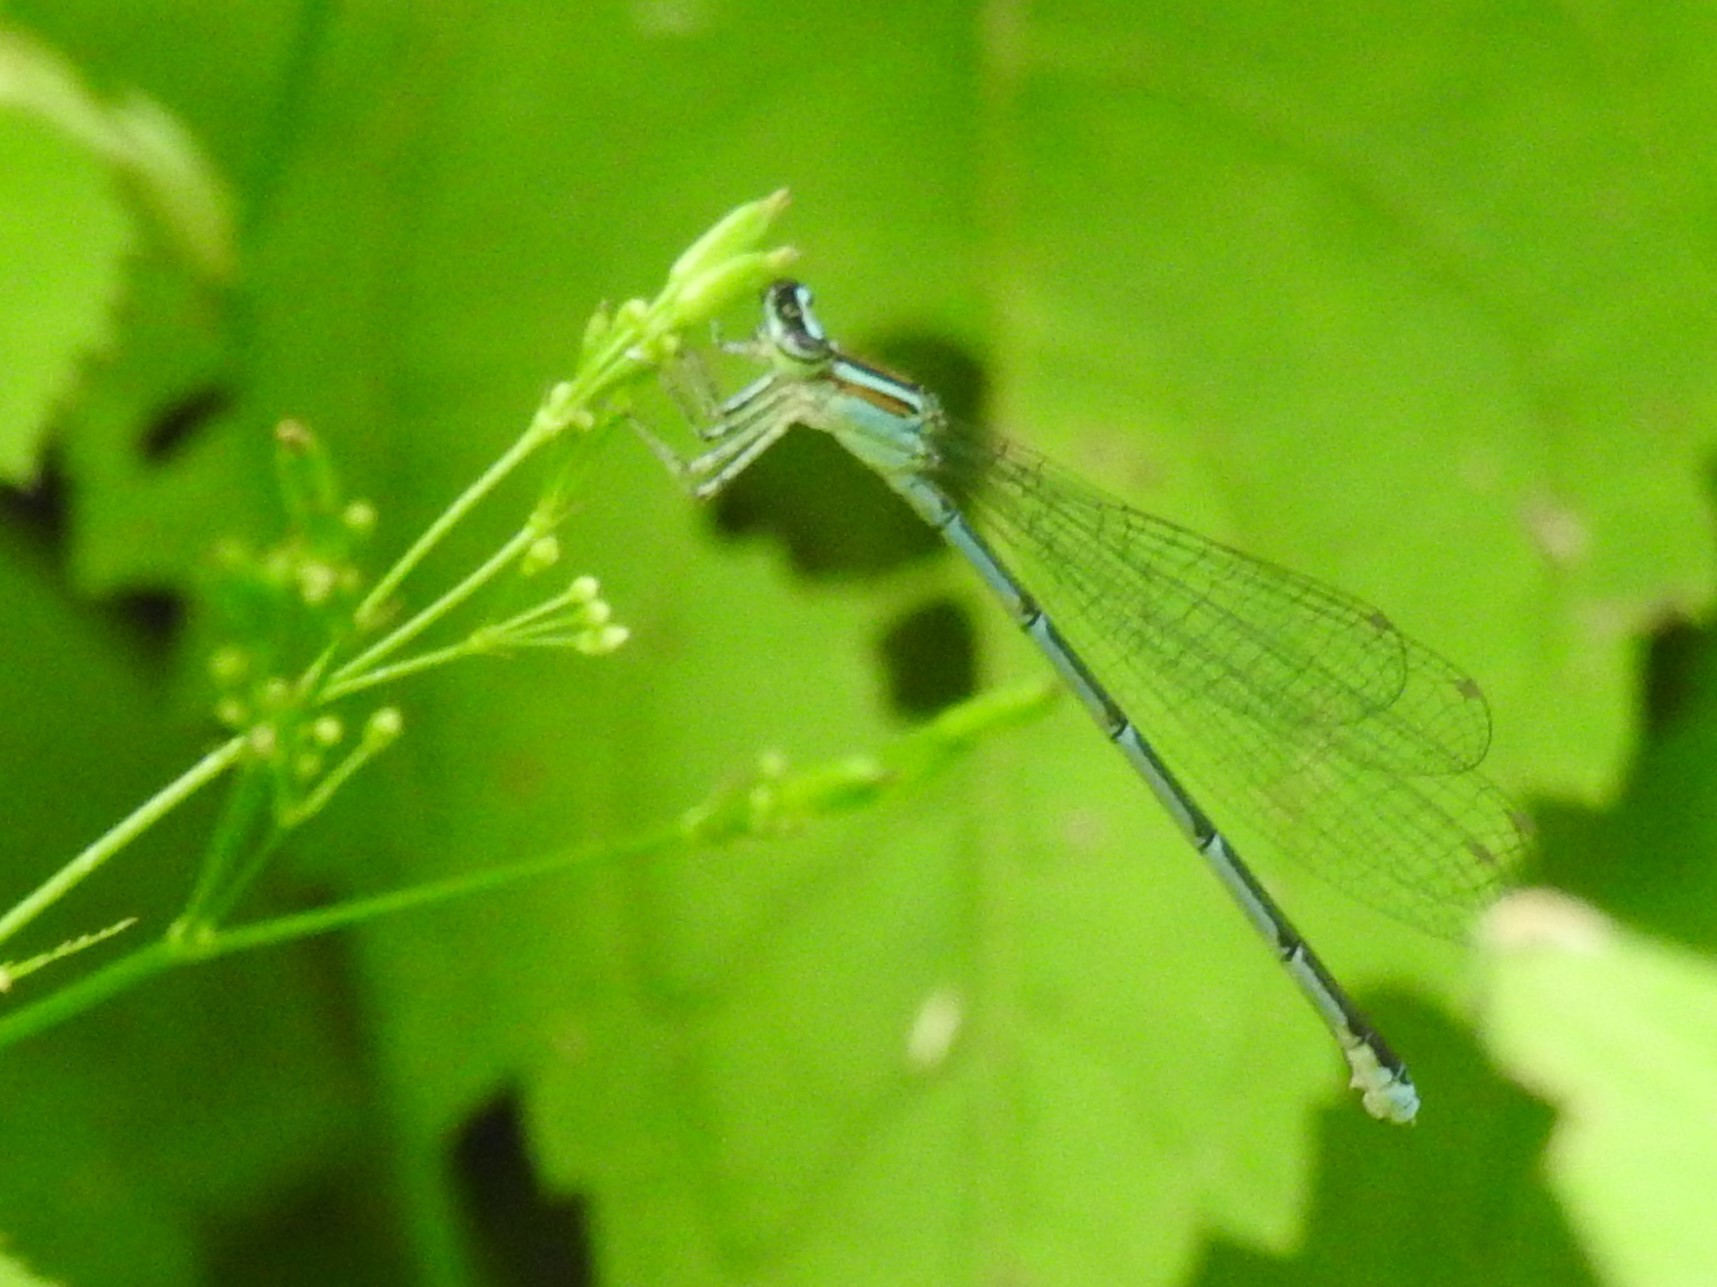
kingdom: Animalia
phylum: Arthropoda
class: Insecta
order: Odonata
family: Coenagrionidae
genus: Enallagma
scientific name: Enallagma exsulans
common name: Stream bluet
